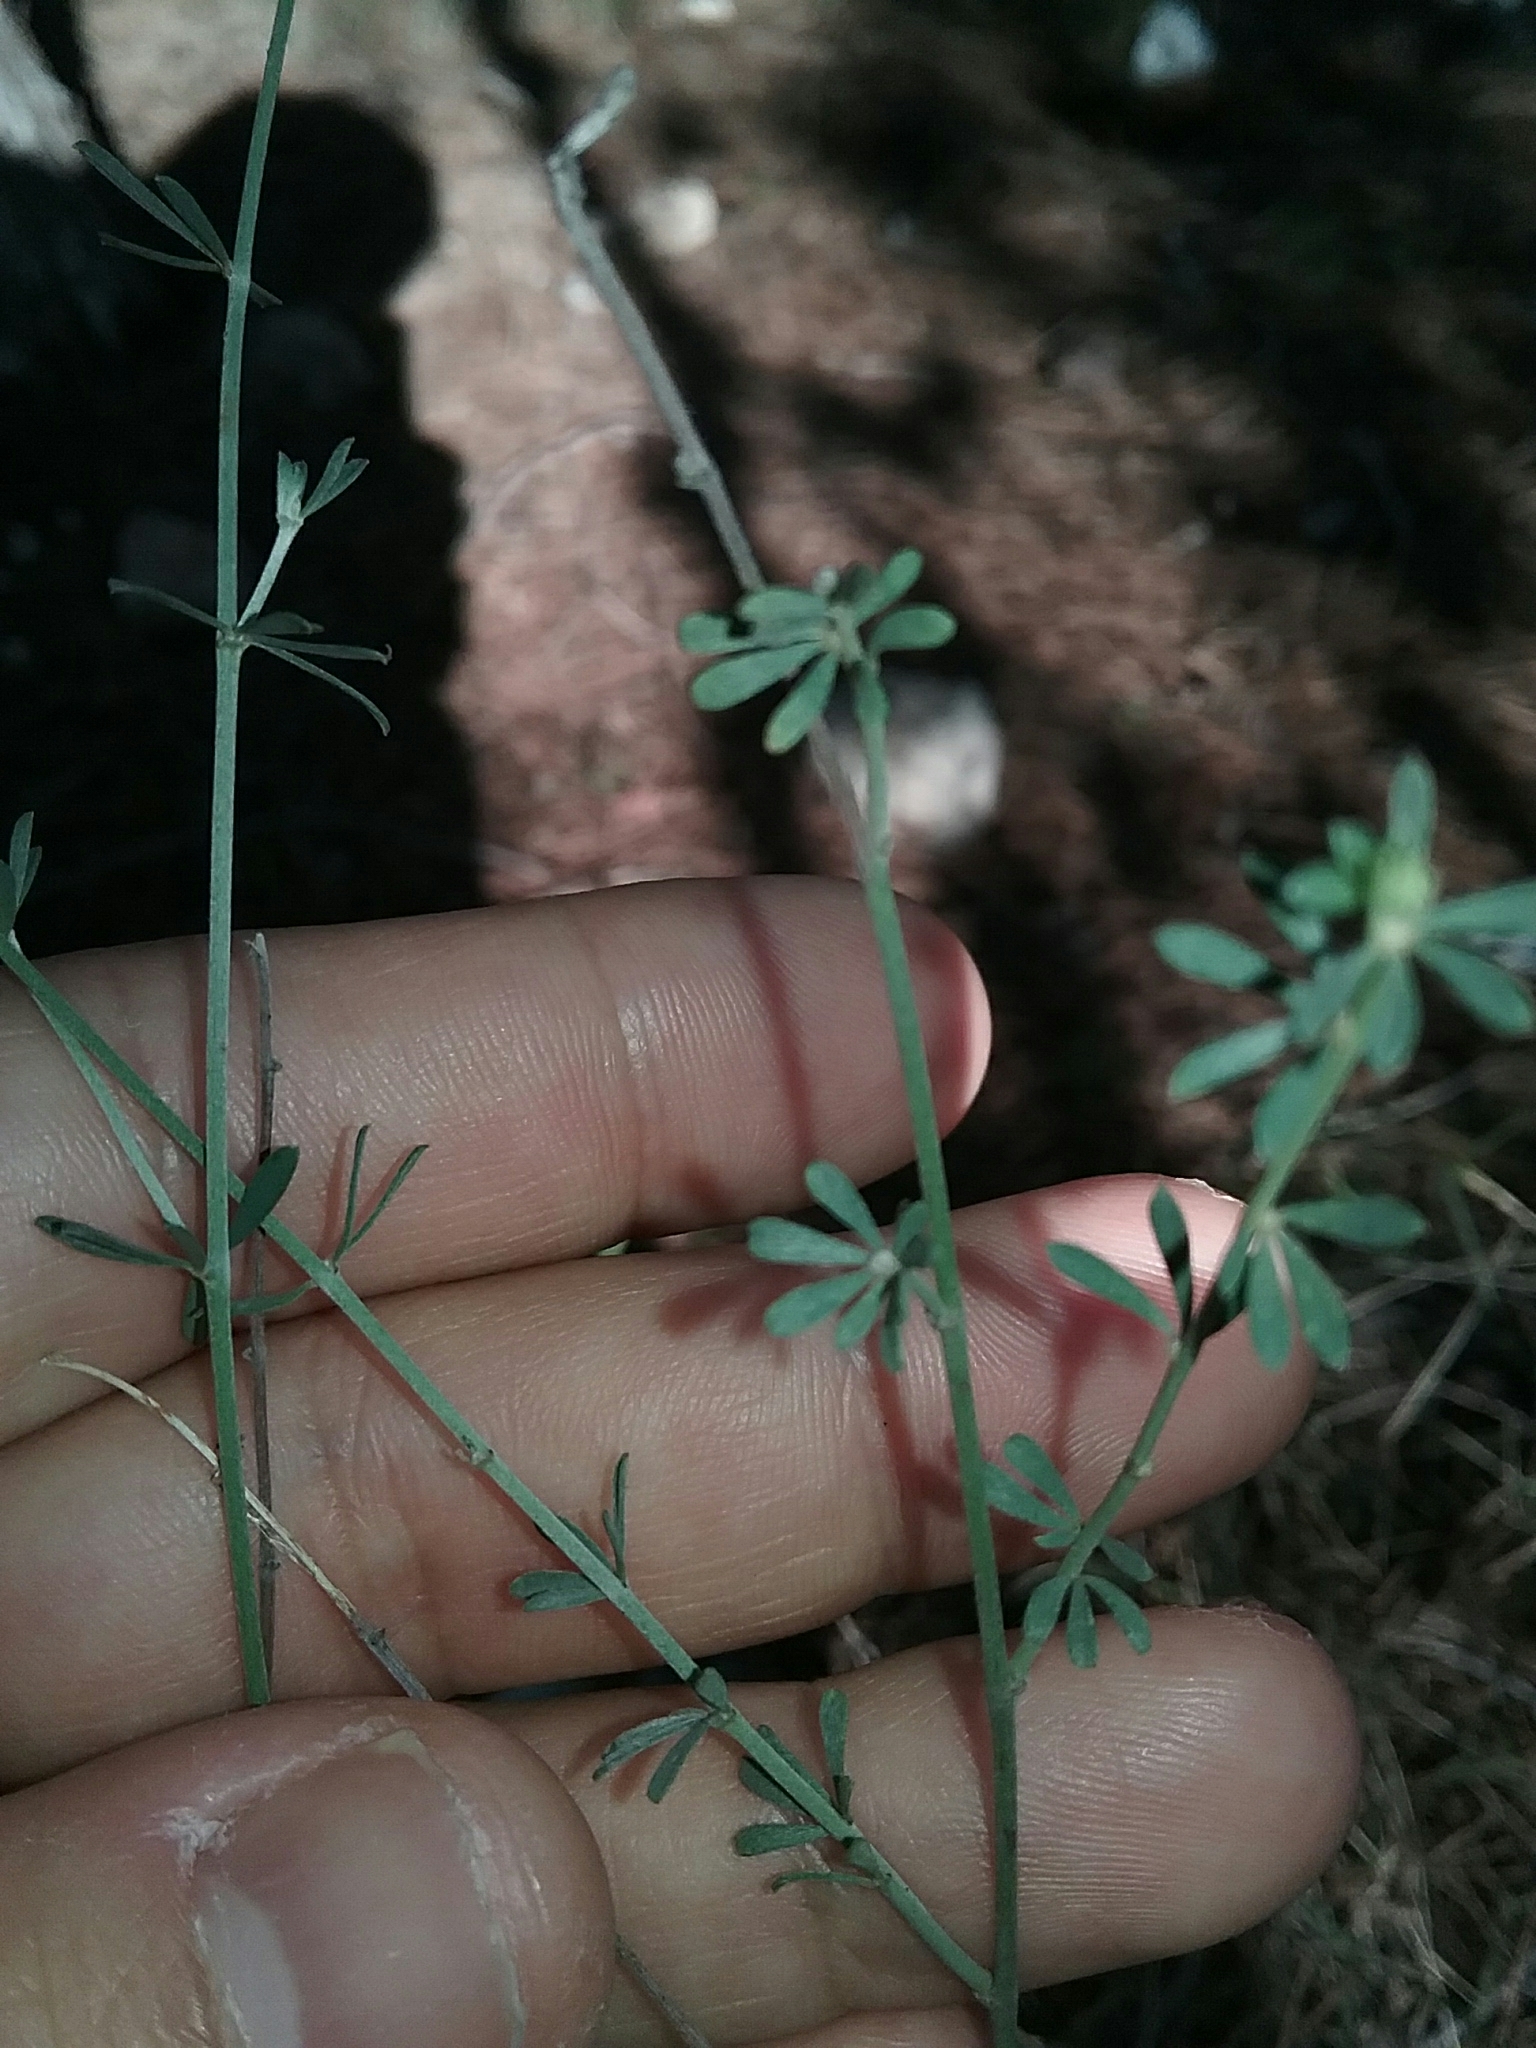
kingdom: Plantae
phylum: Tracheophyta
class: Magnoliopsida
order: Fabales
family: Fabaceae
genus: Lotus
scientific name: Lotus dorycnium
